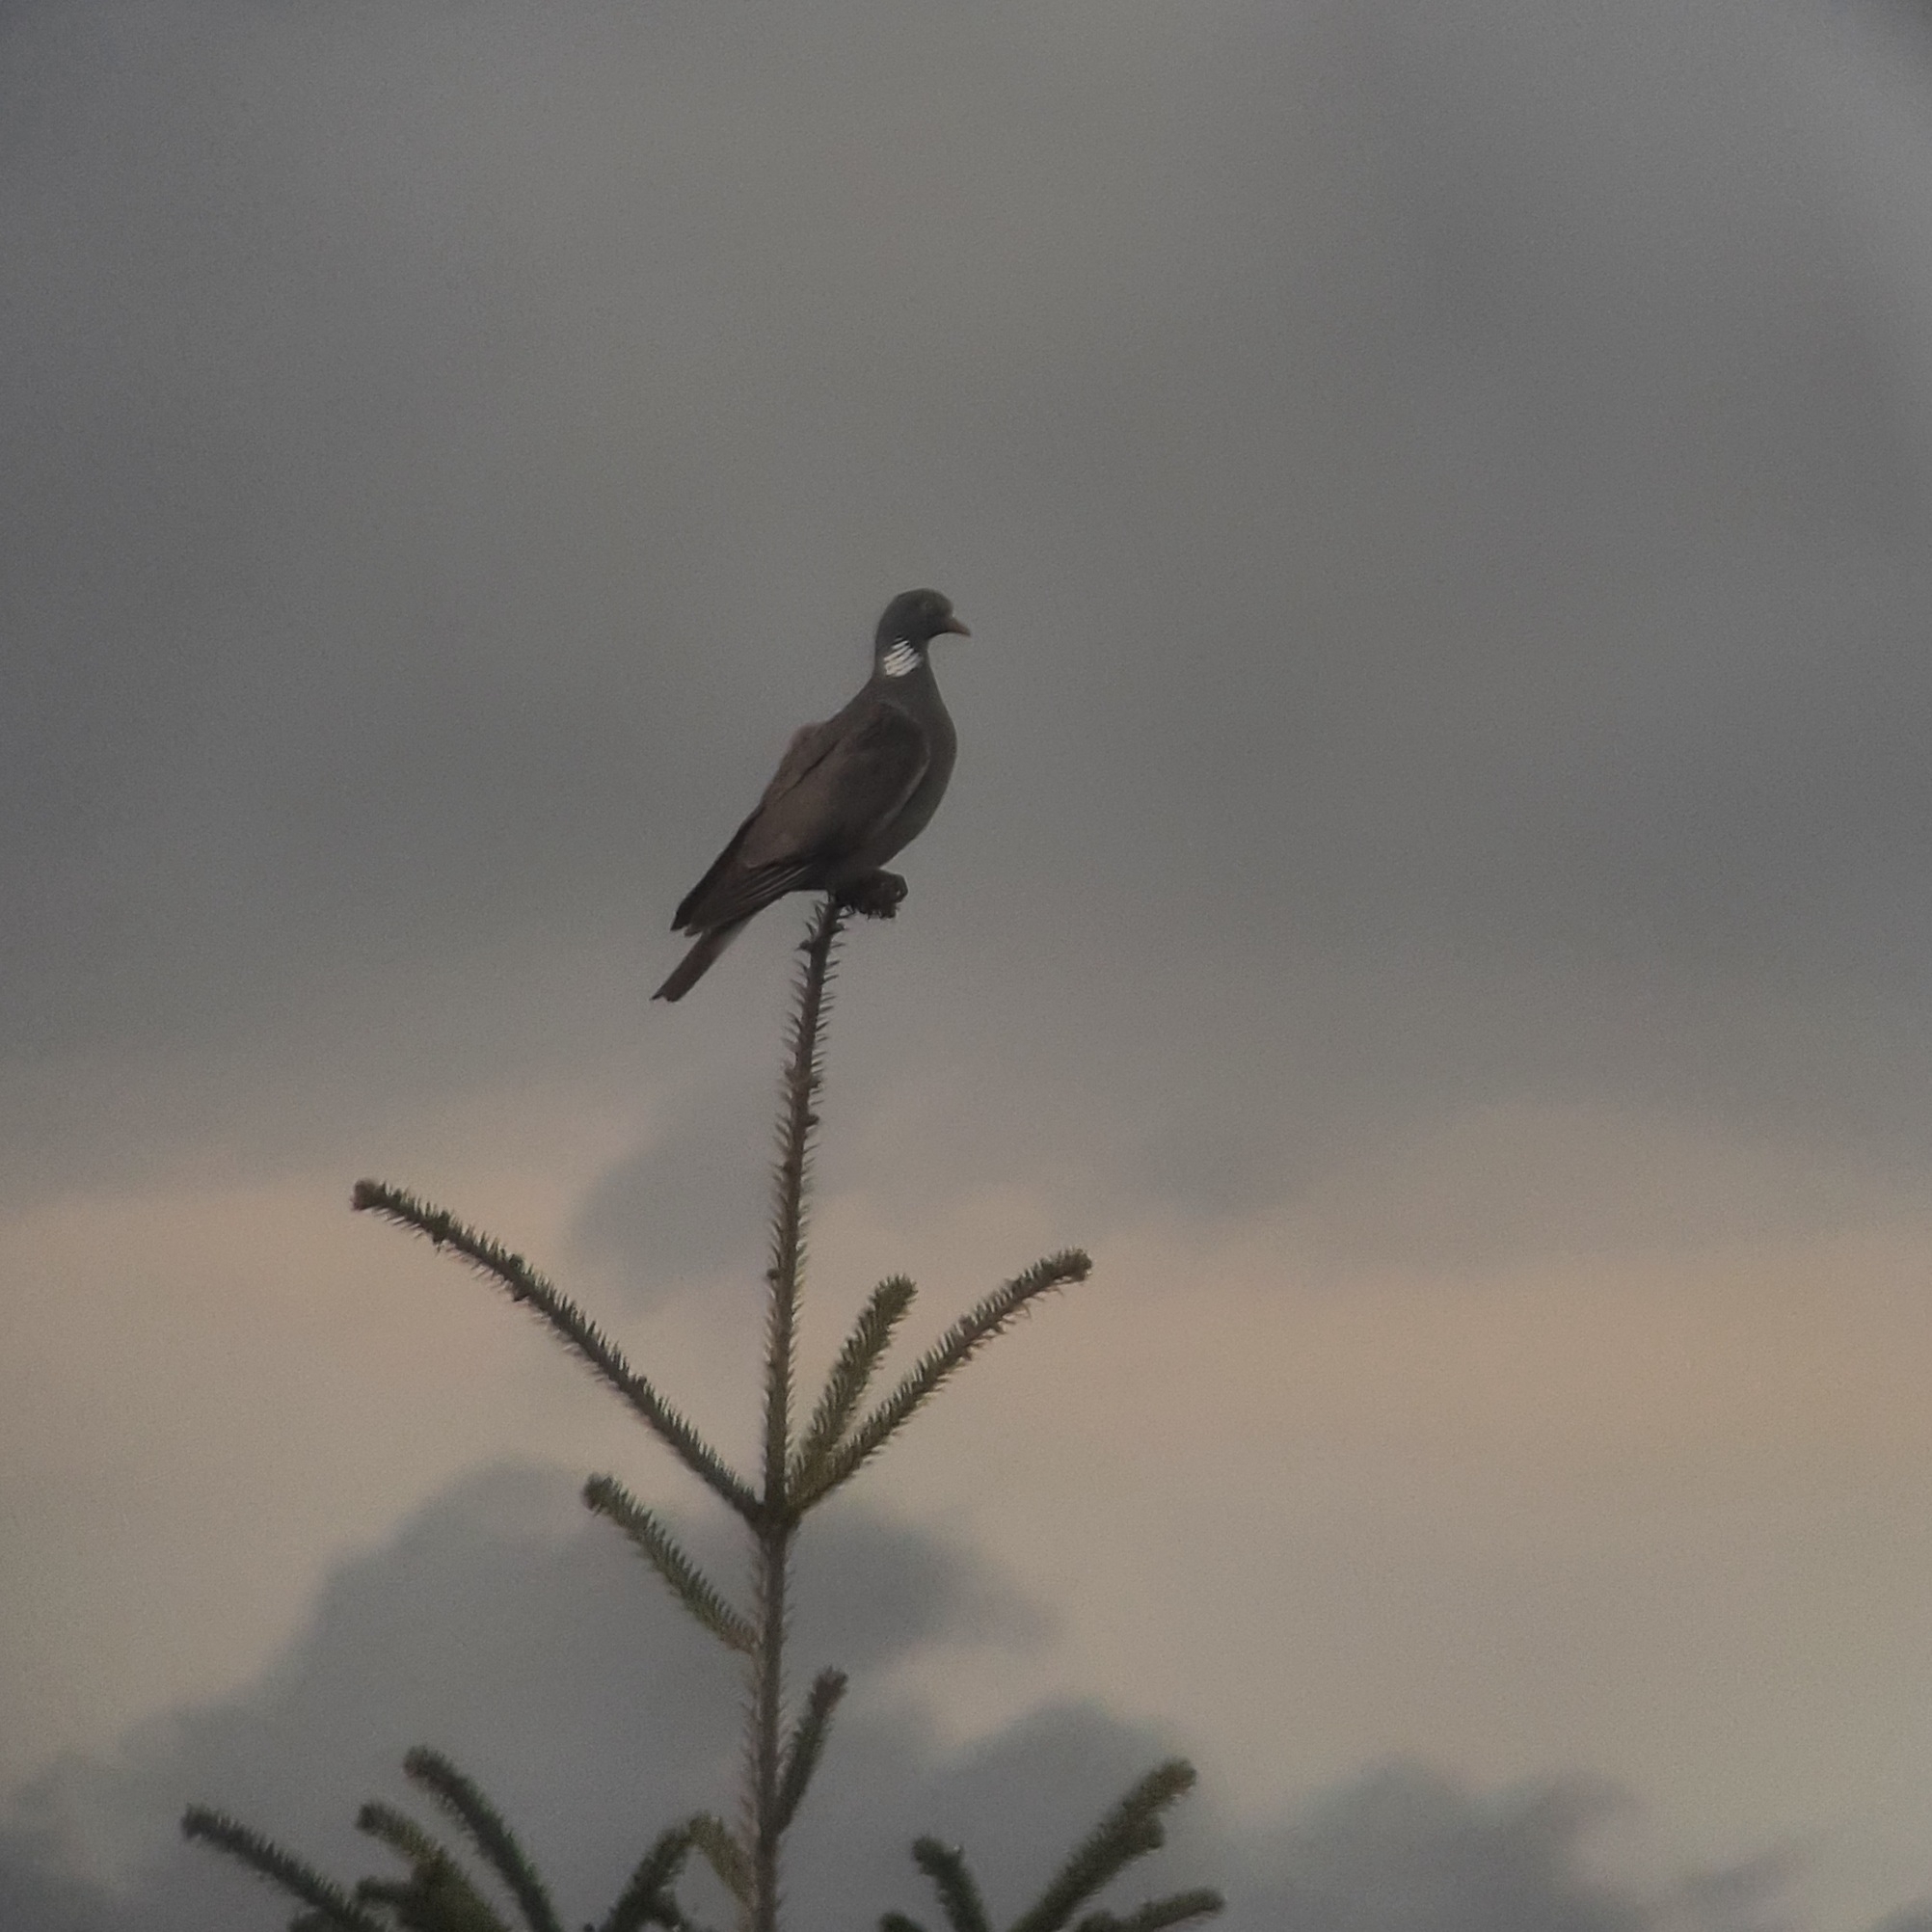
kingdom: Animalia
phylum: Chordata
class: Aves
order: Columbiformes
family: Columbidae
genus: Columba
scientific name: Columba palumbus
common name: Common wood pigeon
